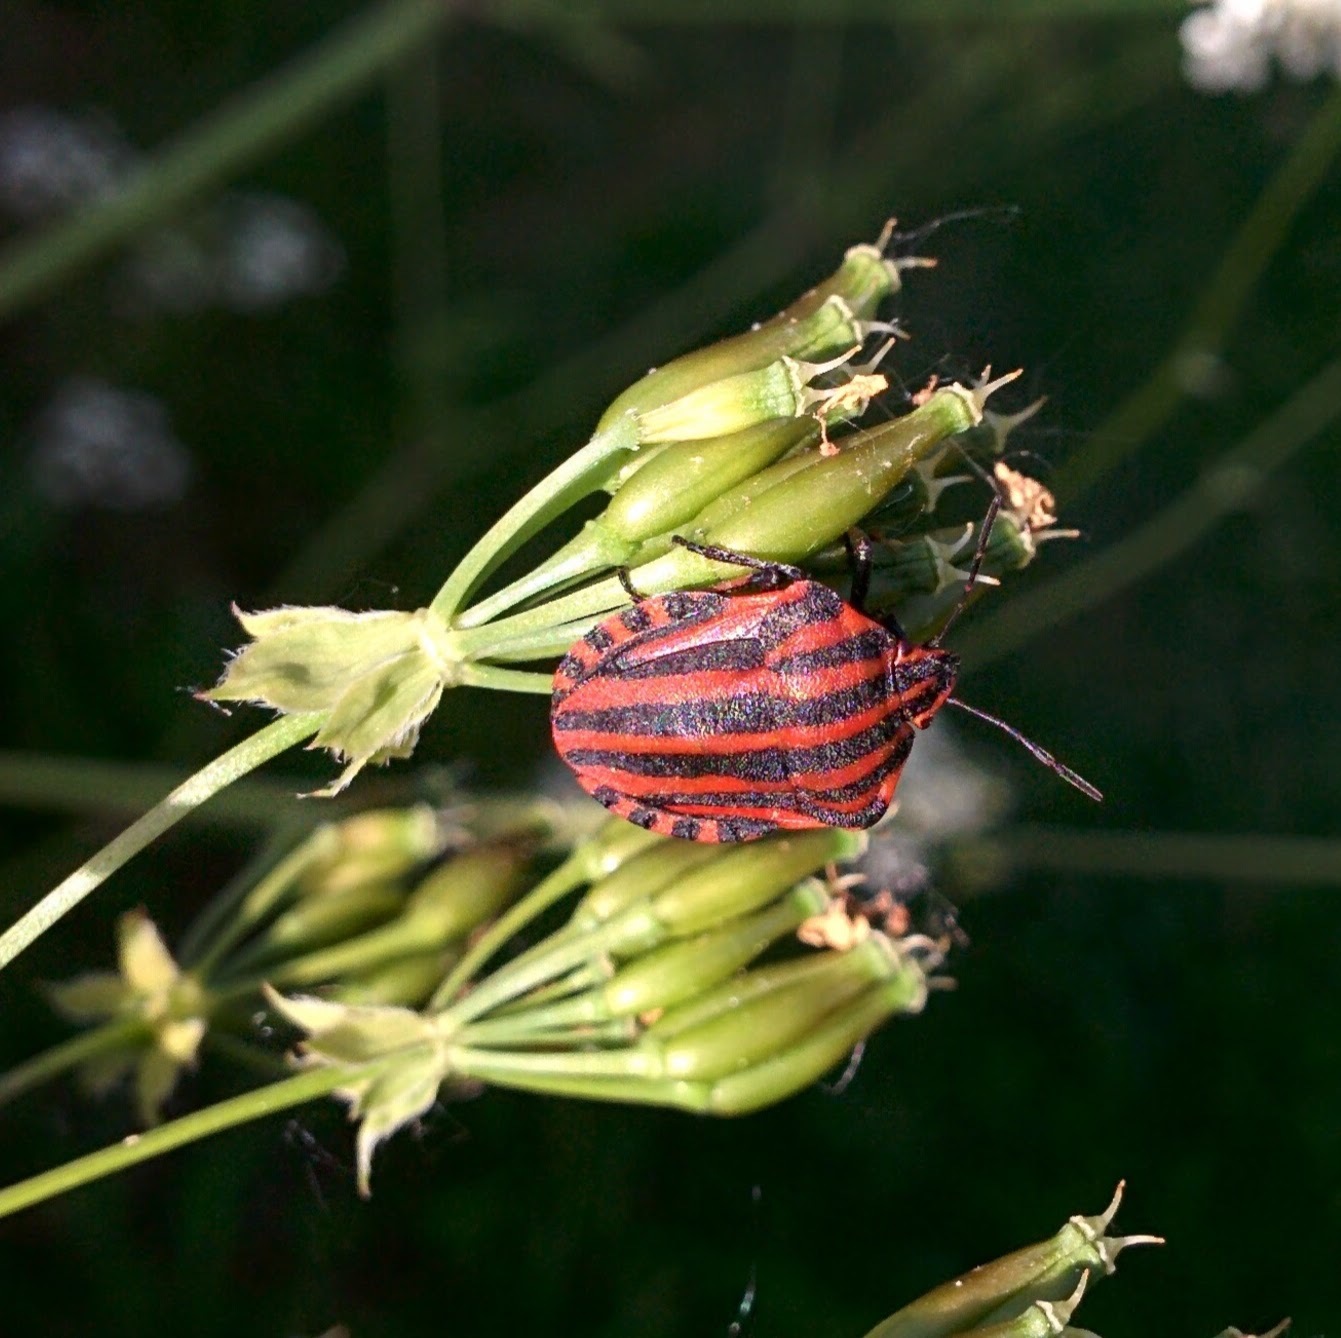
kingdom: Animalia
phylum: Arthropoda
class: Insecta
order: Hemiptera
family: Pentatomidae
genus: Graphosoma
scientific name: Graphosoma italicum
